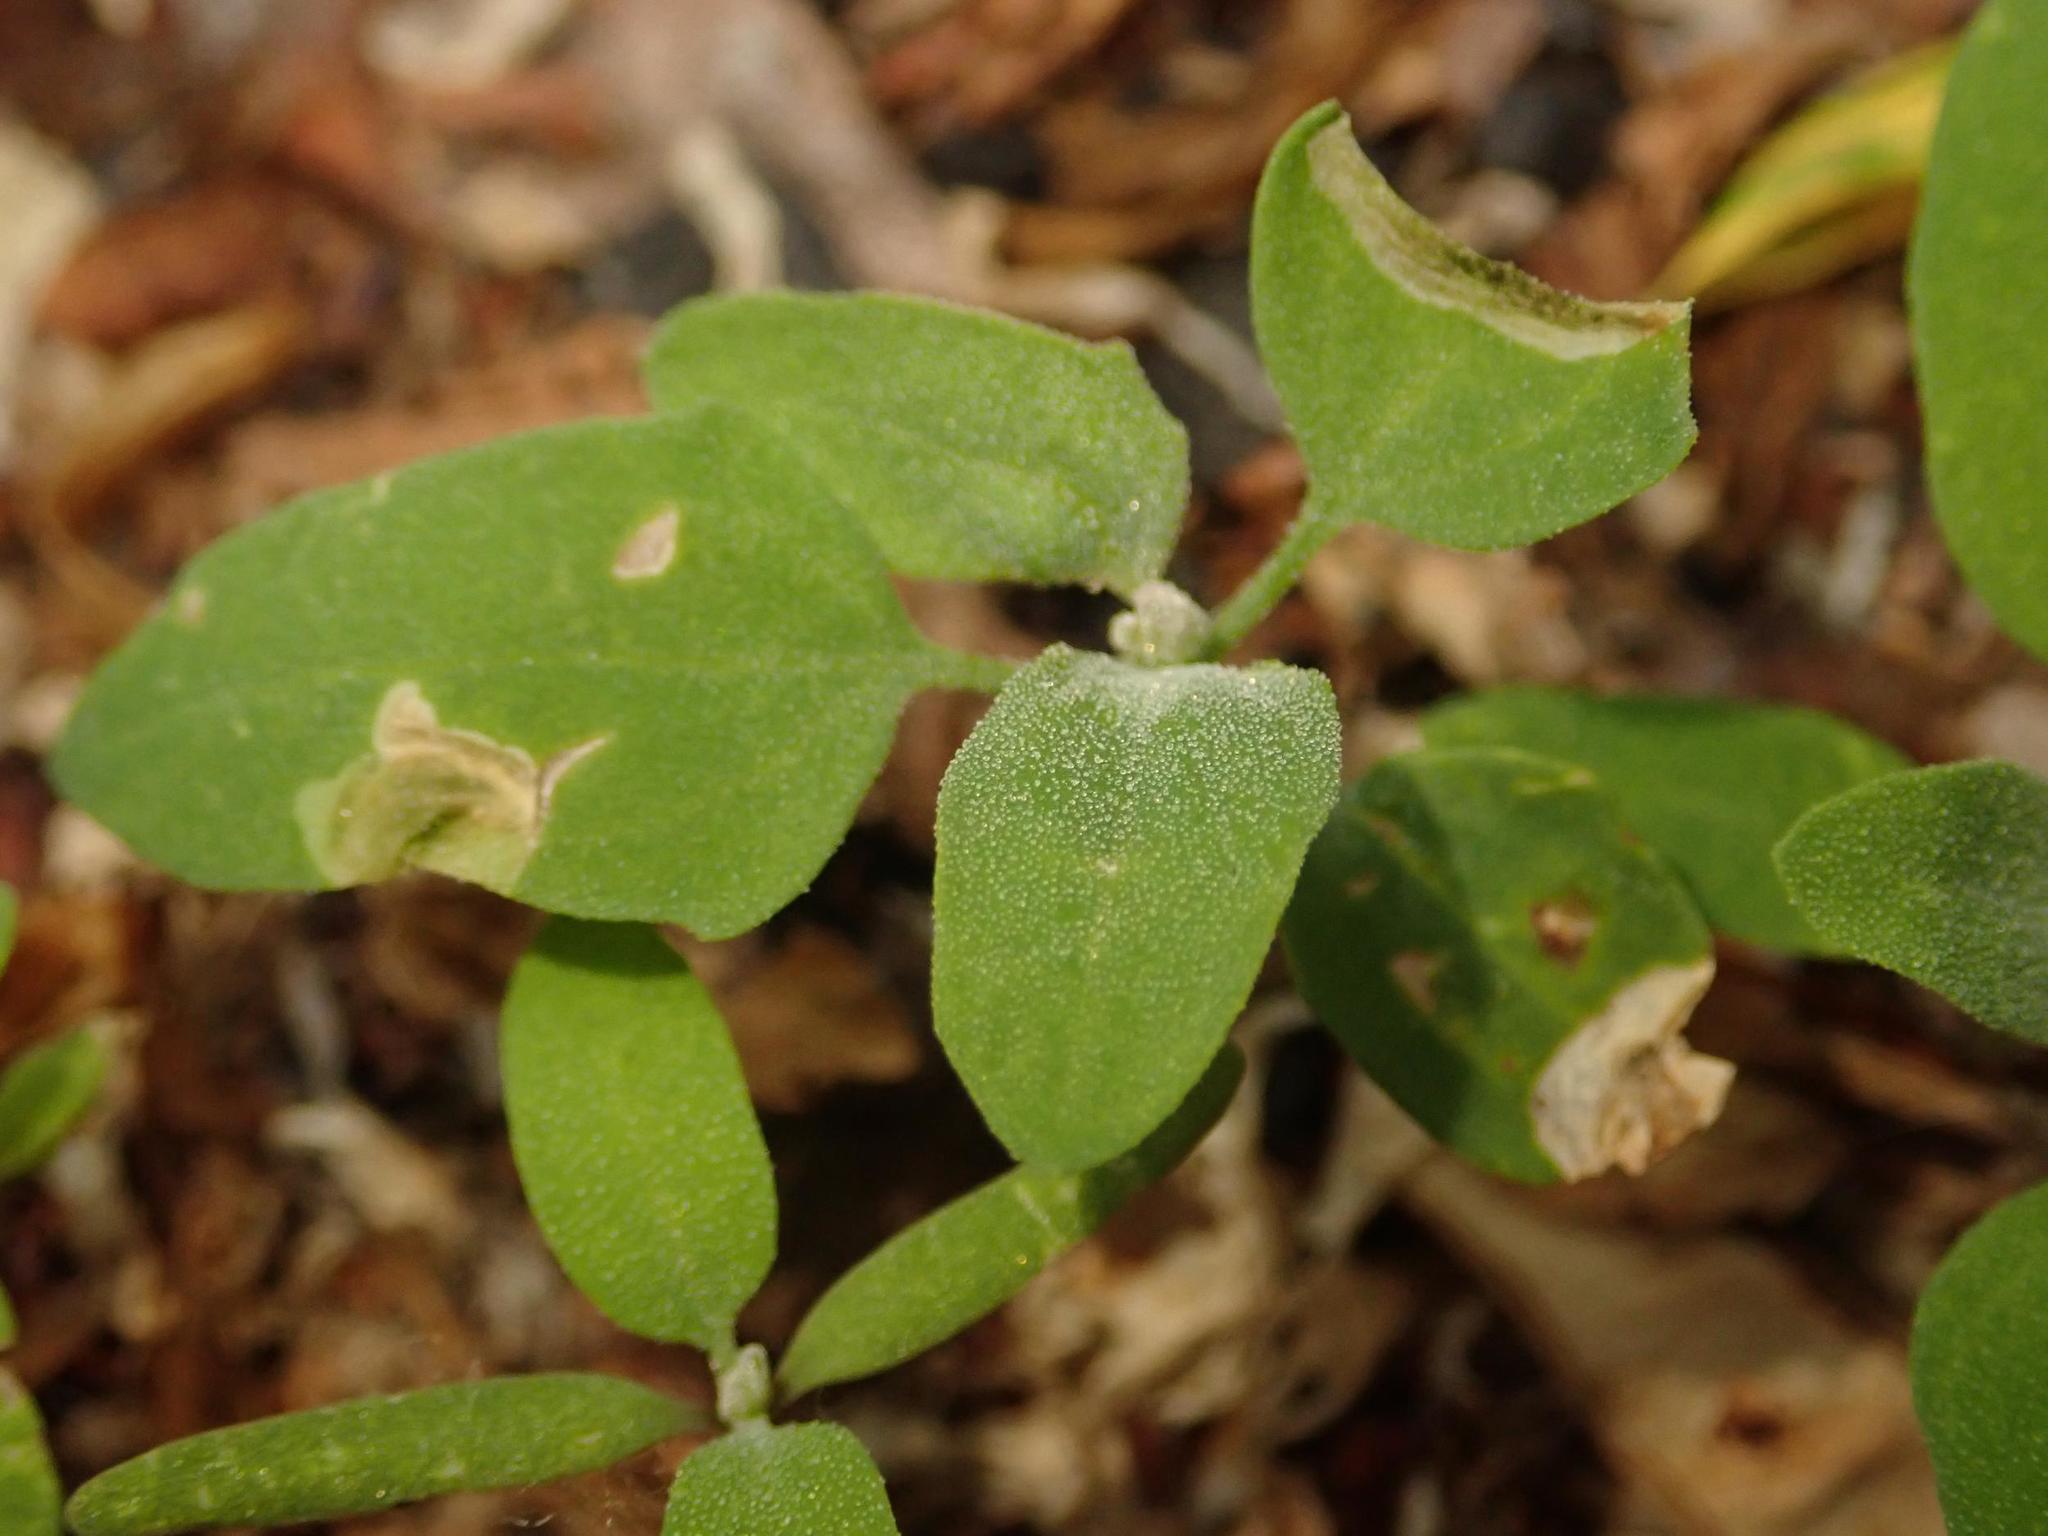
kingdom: Plantae
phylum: Tracheophyta
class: Magnoliopsida
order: Caryophyllales
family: Amaranthaceae
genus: Chenopodium
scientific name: Chenopodium album
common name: Fat-hen
